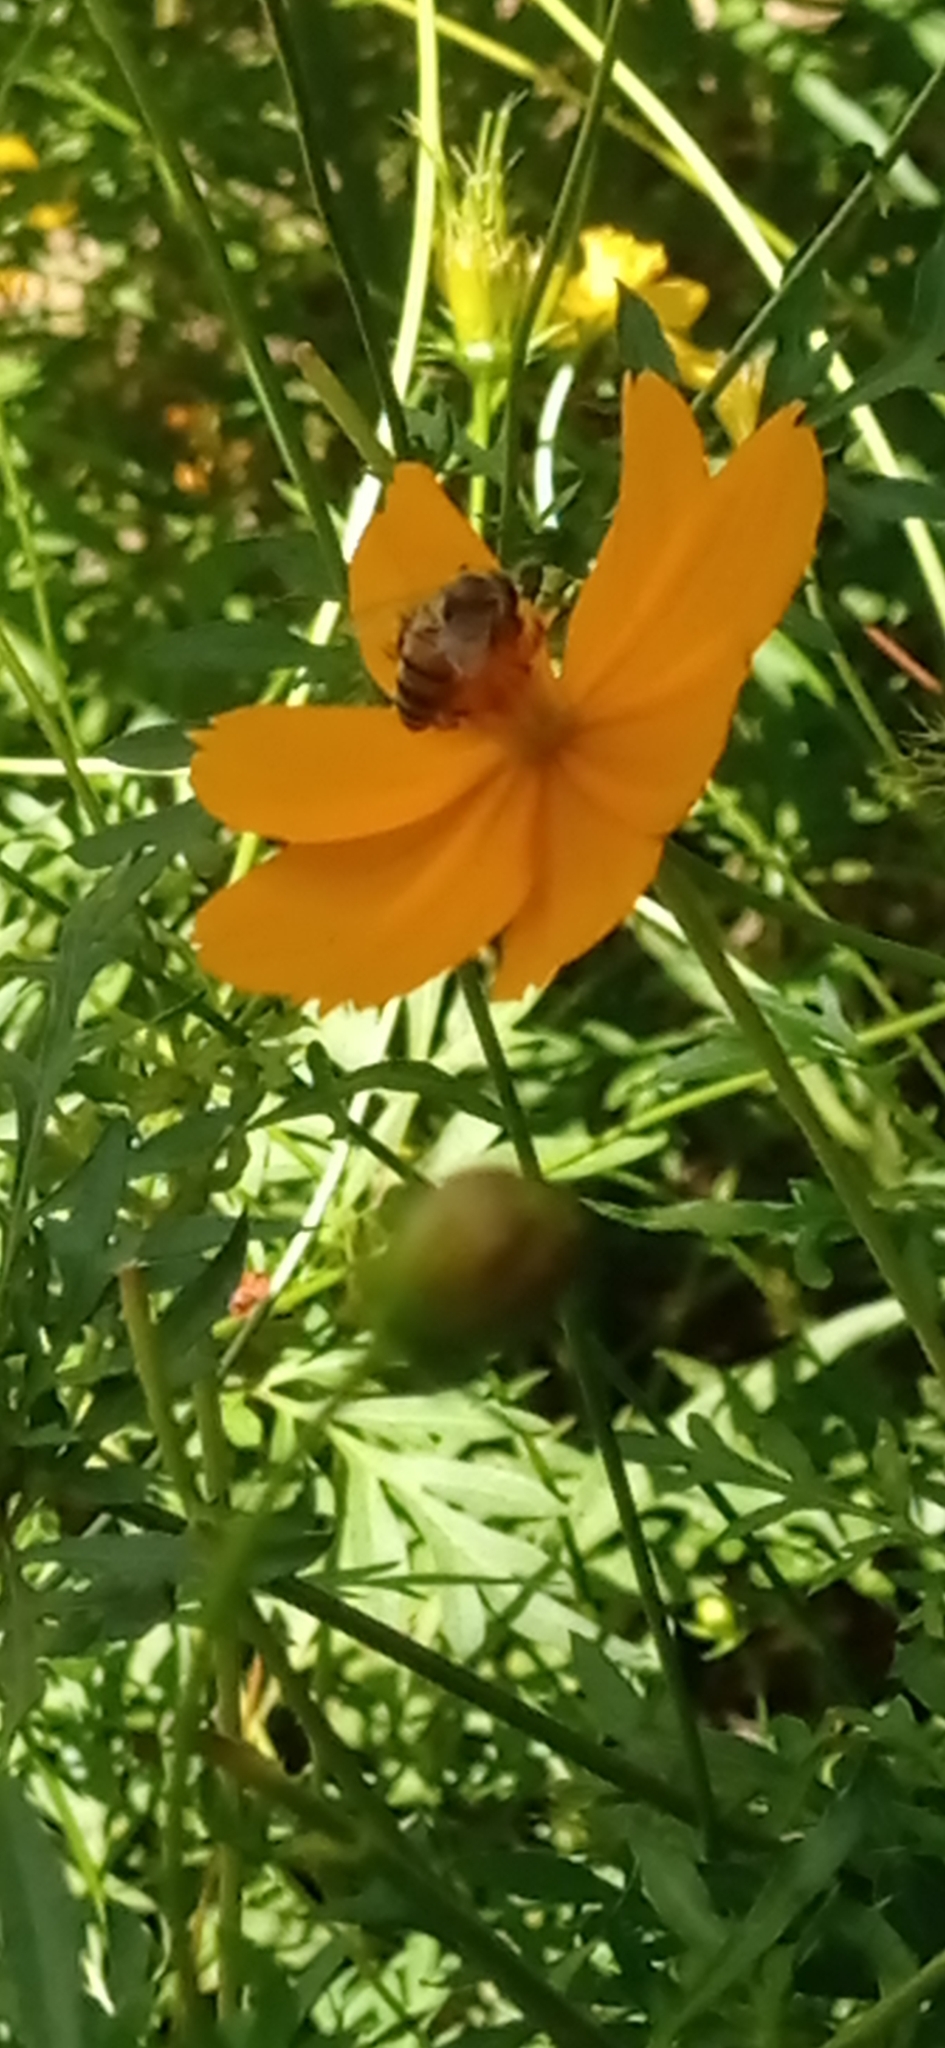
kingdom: Animalia
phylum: Arthropoda
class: Insecta
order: Hymenoptera
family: Apidae
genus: Apis
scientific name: Apis mellifera
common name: Honey bee
